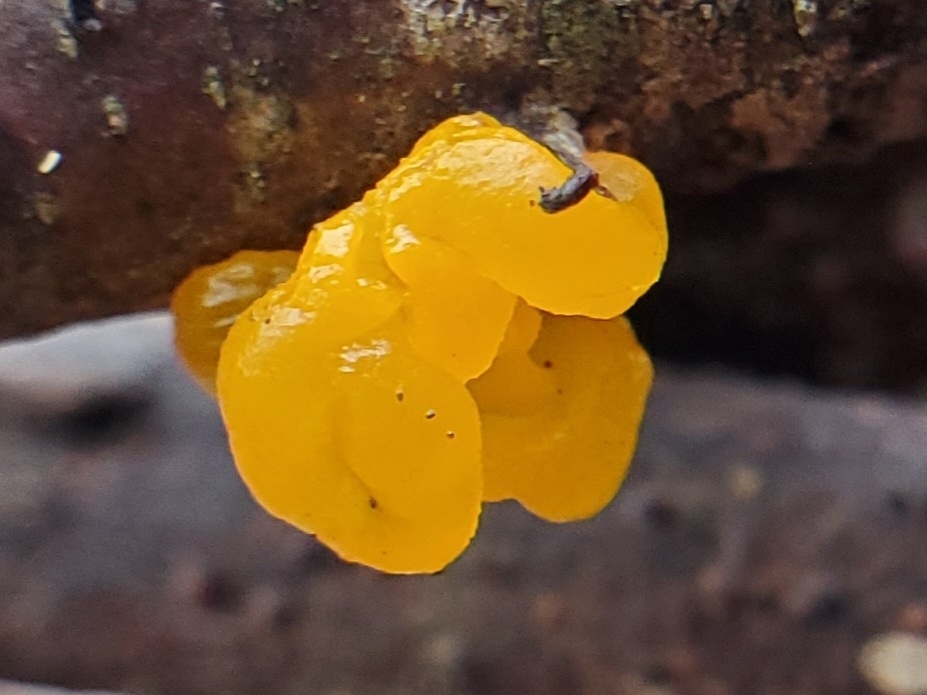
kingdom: Fungi
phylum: Basidiomycota
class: Tremellomycetes
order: Tremellales
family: Tremellaceae
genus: Tremella
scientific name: Tremella mesenterica
